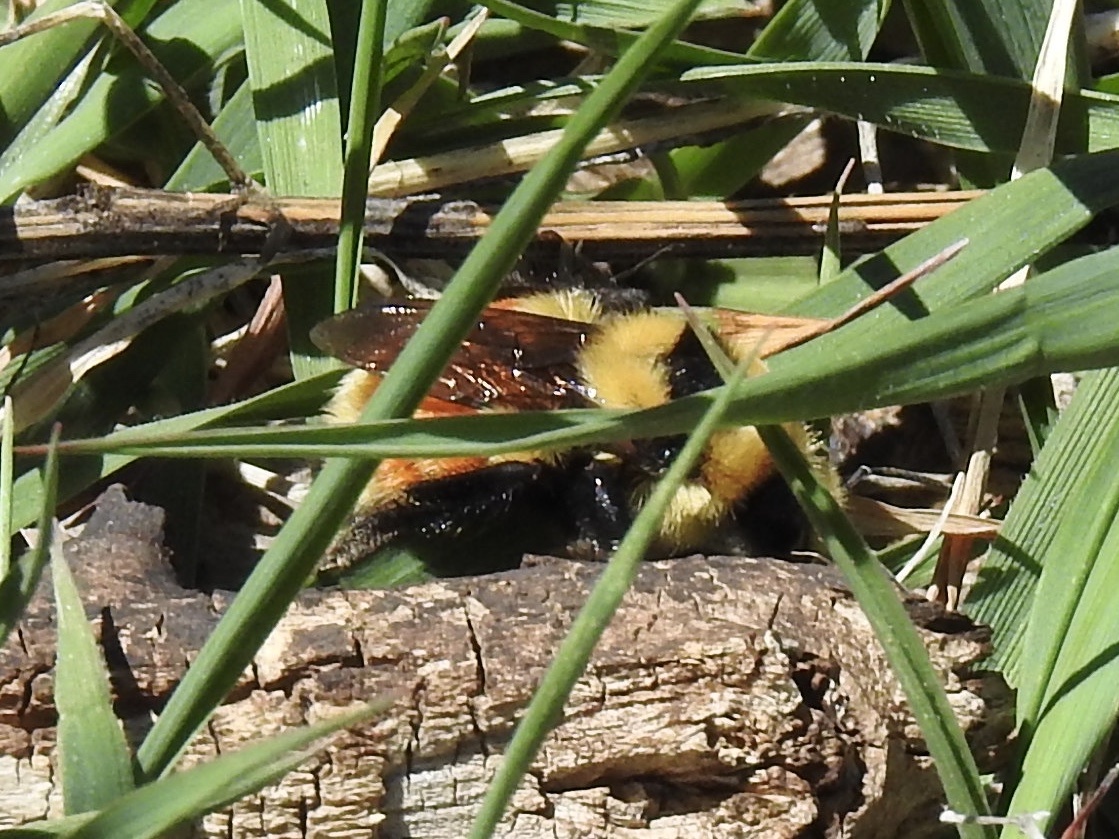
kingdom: Animalia
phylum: Arthropoda
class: Insecta
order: Hymenoptera
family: Apidae
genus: Bombus
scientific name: Bombus huntii
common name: Hunt bumble bee
